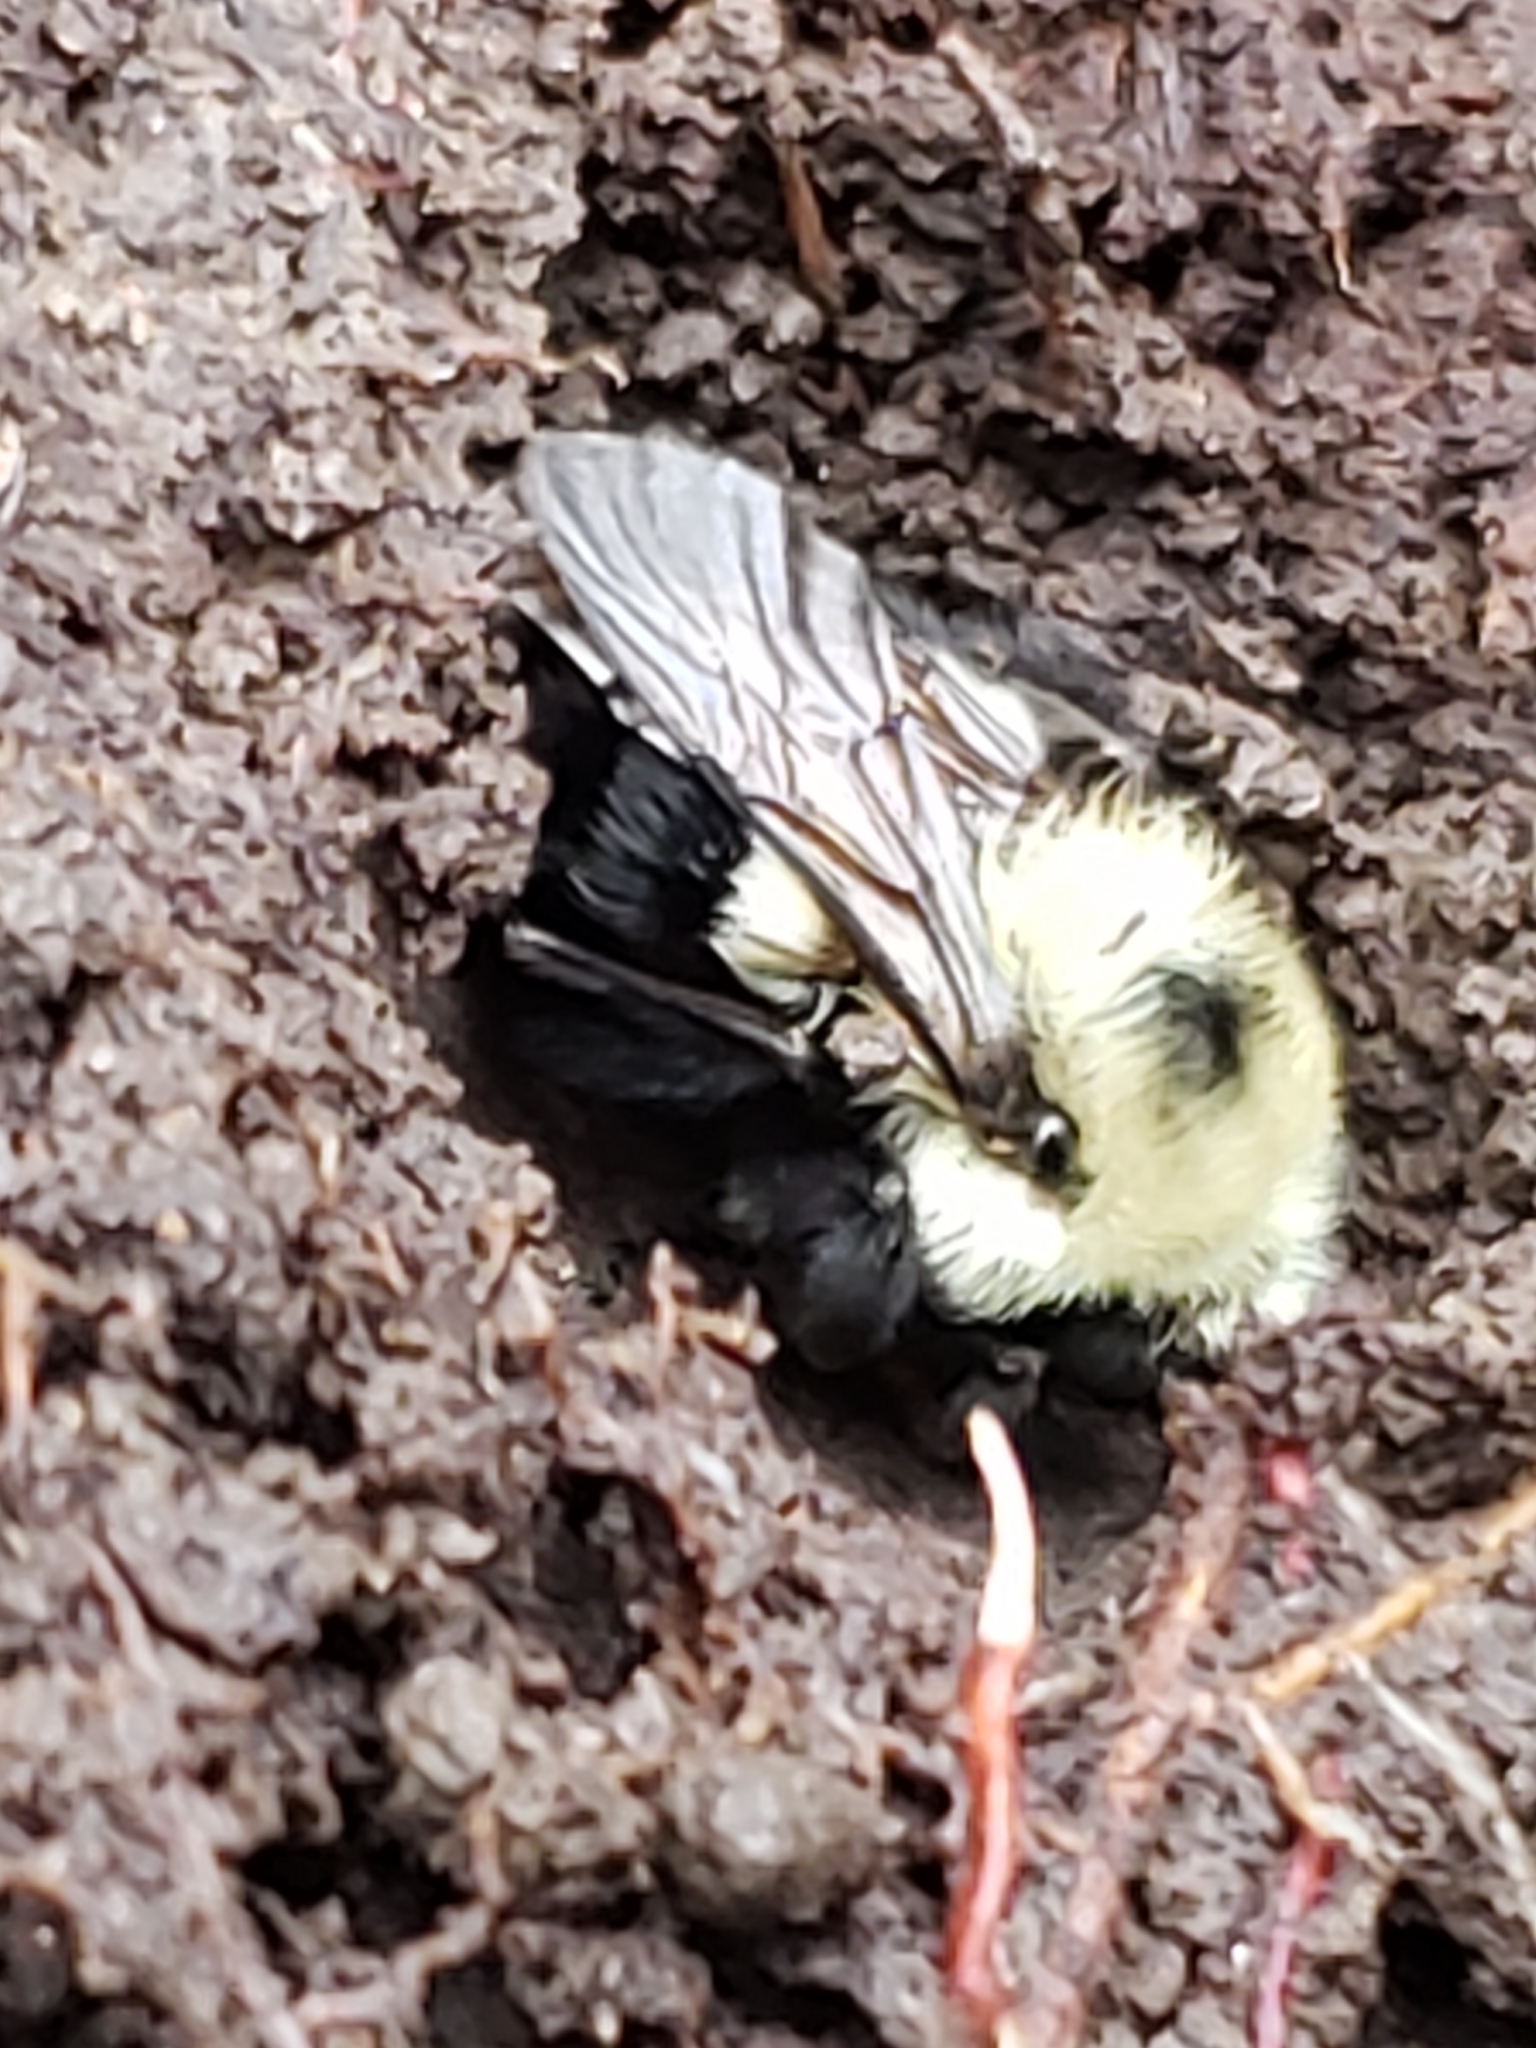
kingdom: Animalia
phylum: Arthropoda
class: Insecta
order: Hymenoptera
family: Apidae
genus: Bombus
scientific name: Bombus bimaculatus
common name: Two-spotted bumble bee
